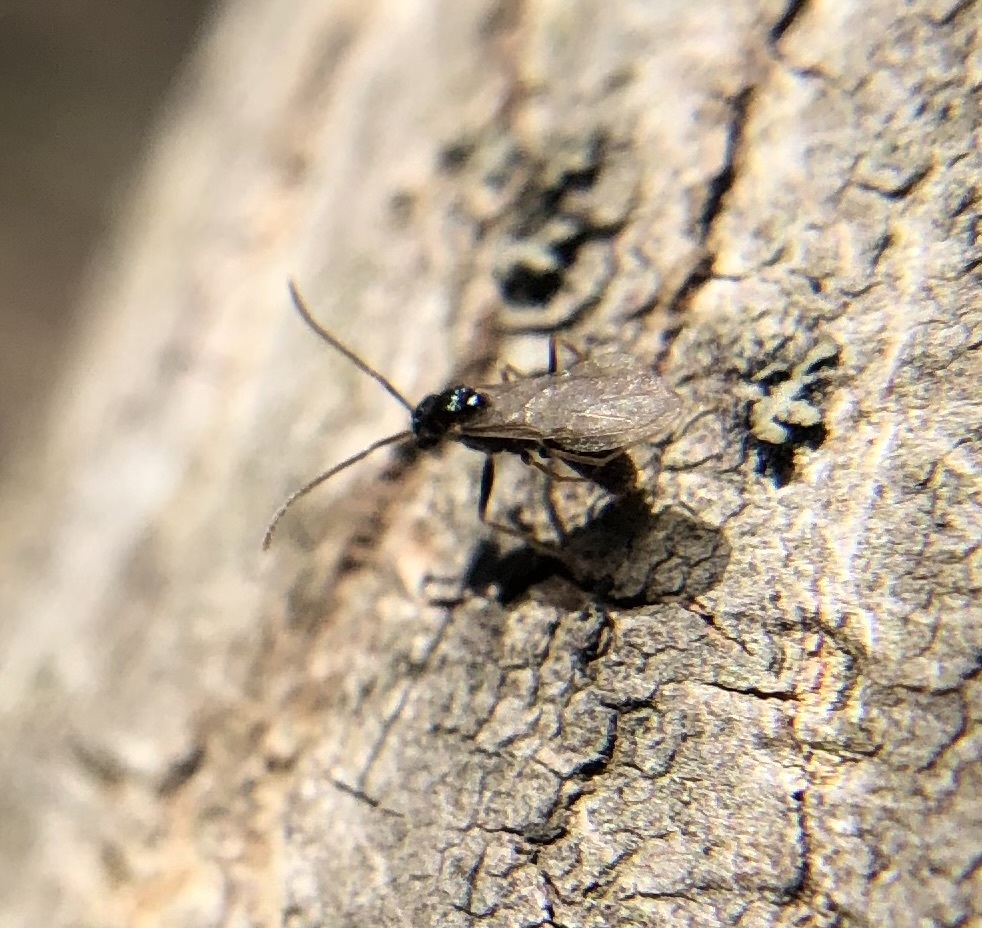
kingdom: Animalia
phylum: Arthropoda
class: Insecta
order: Hymenoptera
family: Formicidae
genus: Prenolepis
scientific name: Prenolepis imparis
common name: Small honey ant
